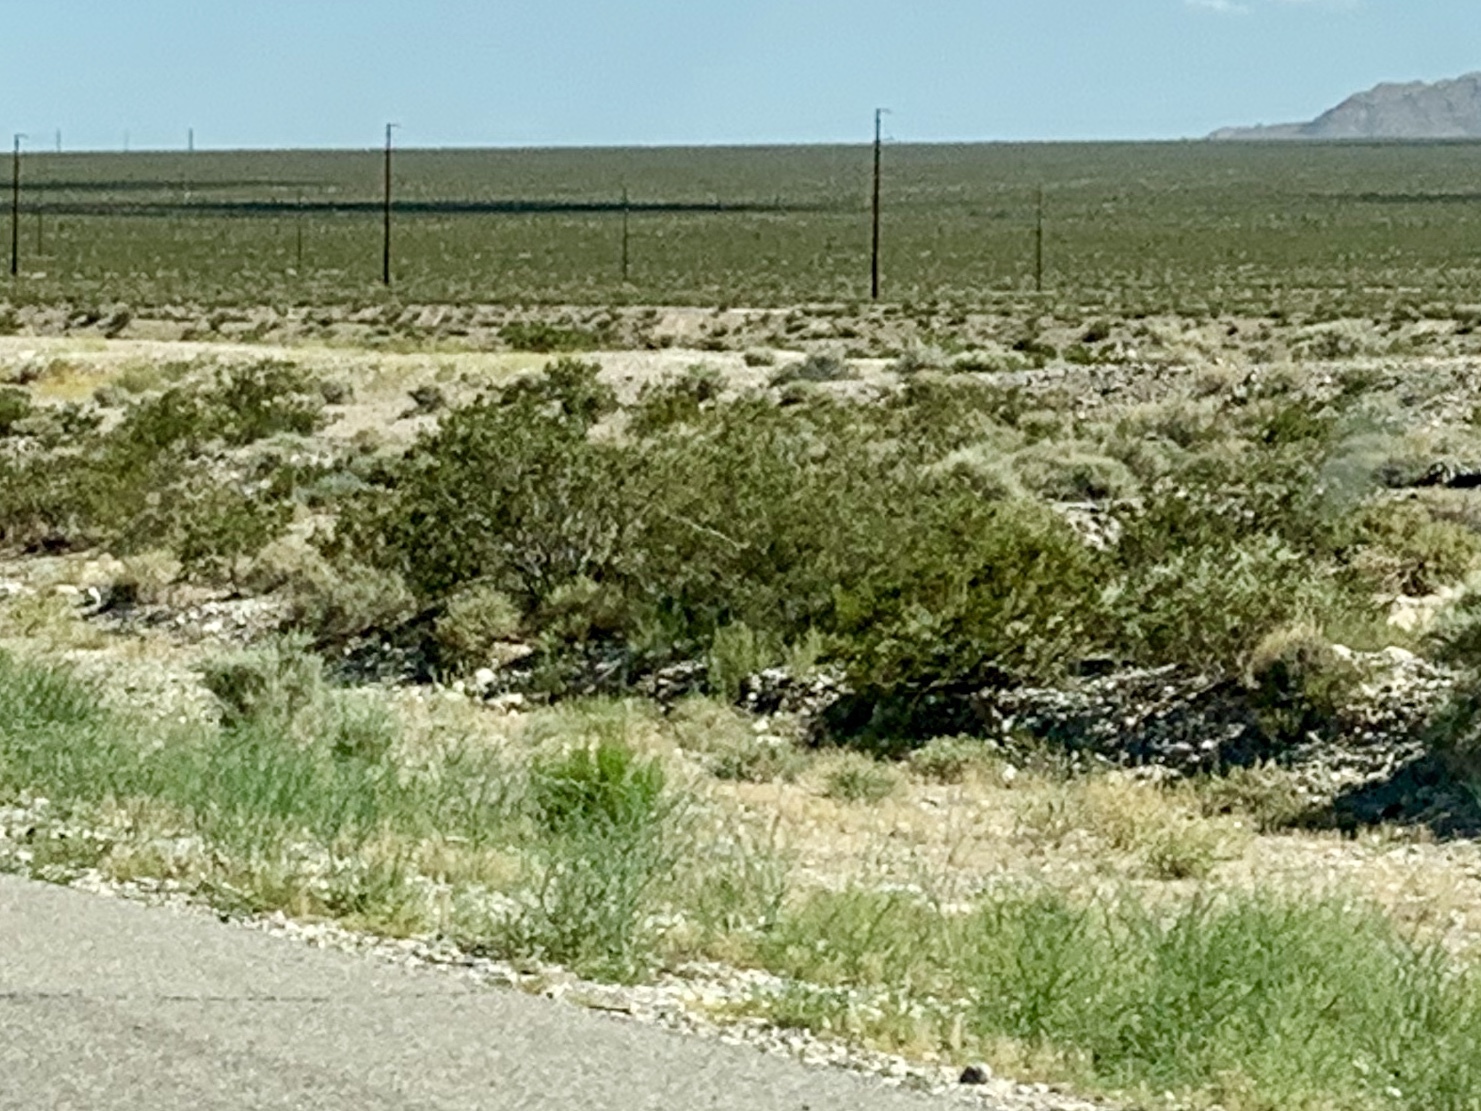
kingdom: Plantae
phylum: Tracheophyta
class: Magnoliopsida
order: Zygophyllales
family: Zygophyllaceae
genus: Larrea
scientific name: Larrea tridentata
